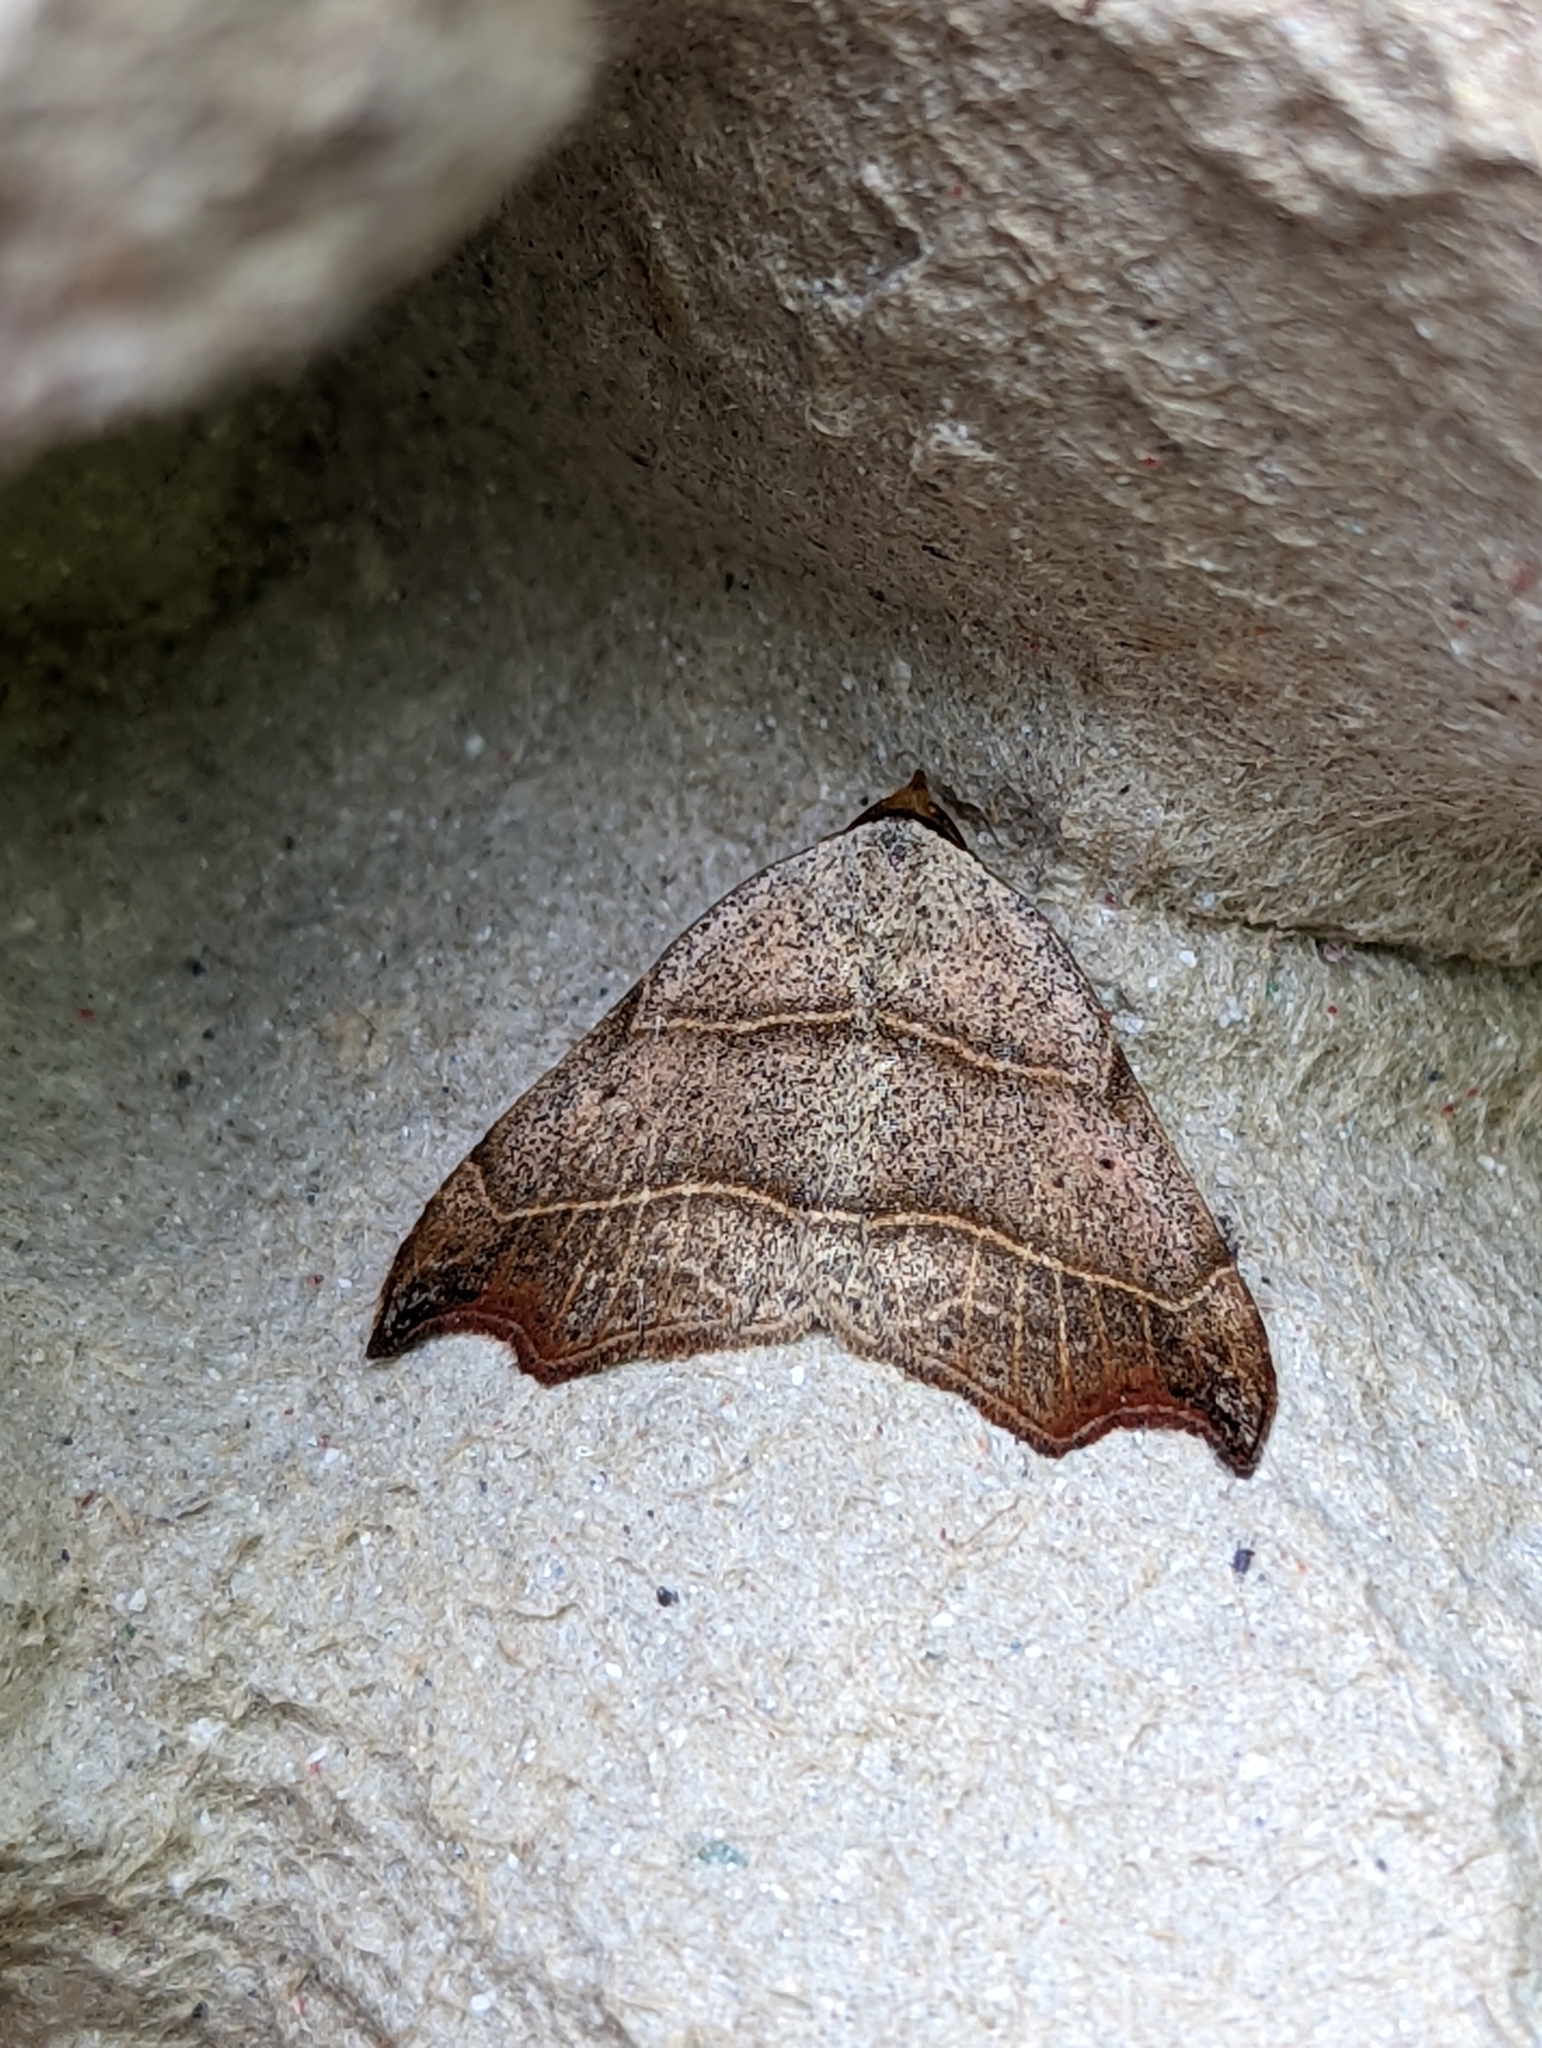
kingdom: Animalia
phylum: Arthropoda
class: Insecta
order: Lepidoptera
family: Erebidae
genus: Laspeyria
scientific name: Laspeyria flexula
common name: Beautiful hook-tip
